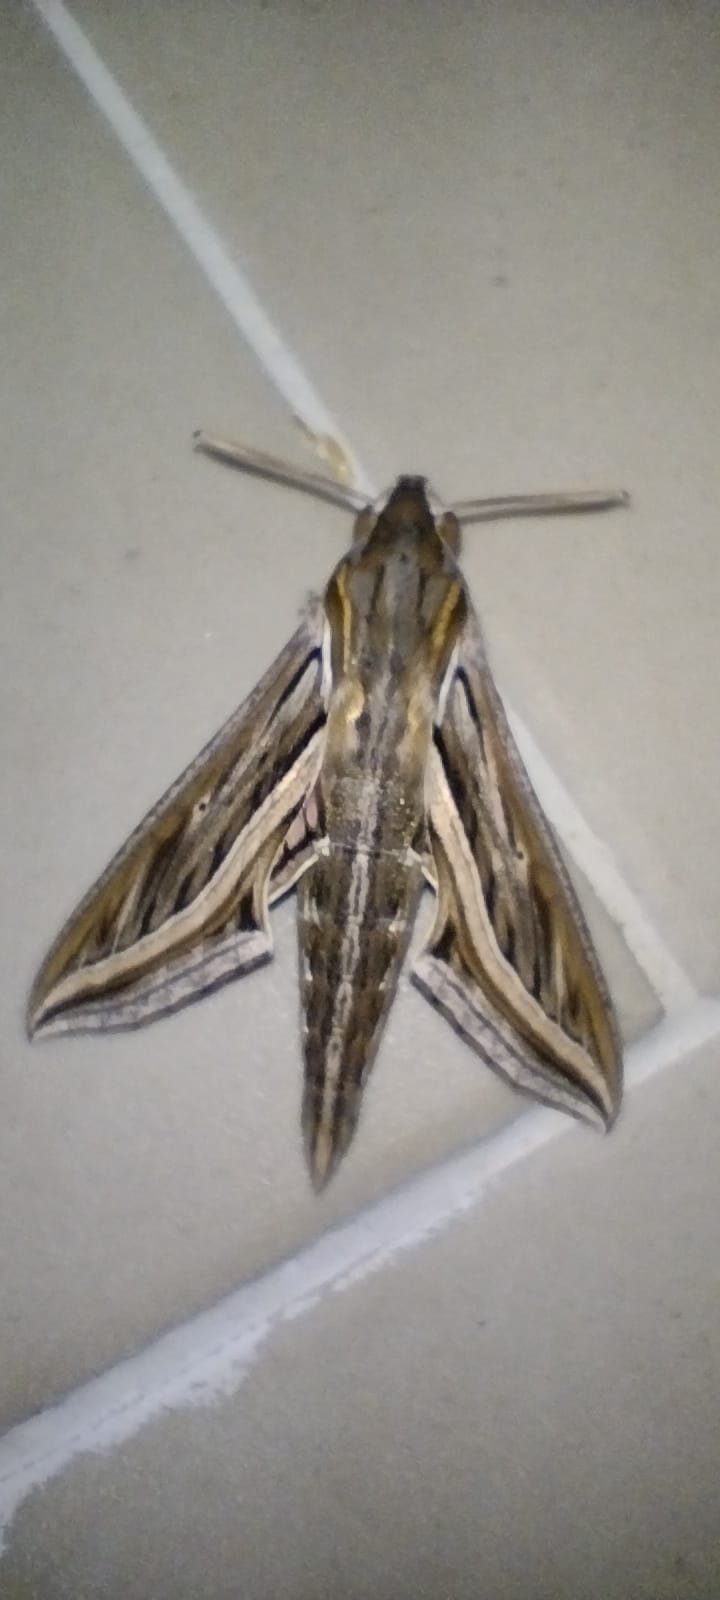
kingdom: Animalia
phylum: Arthropoda
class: Insecta
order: Lepidoptera
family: Sphingidae
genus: Hippotion
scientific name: Hippotion celerio
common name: Silver-striped hawk-moth
